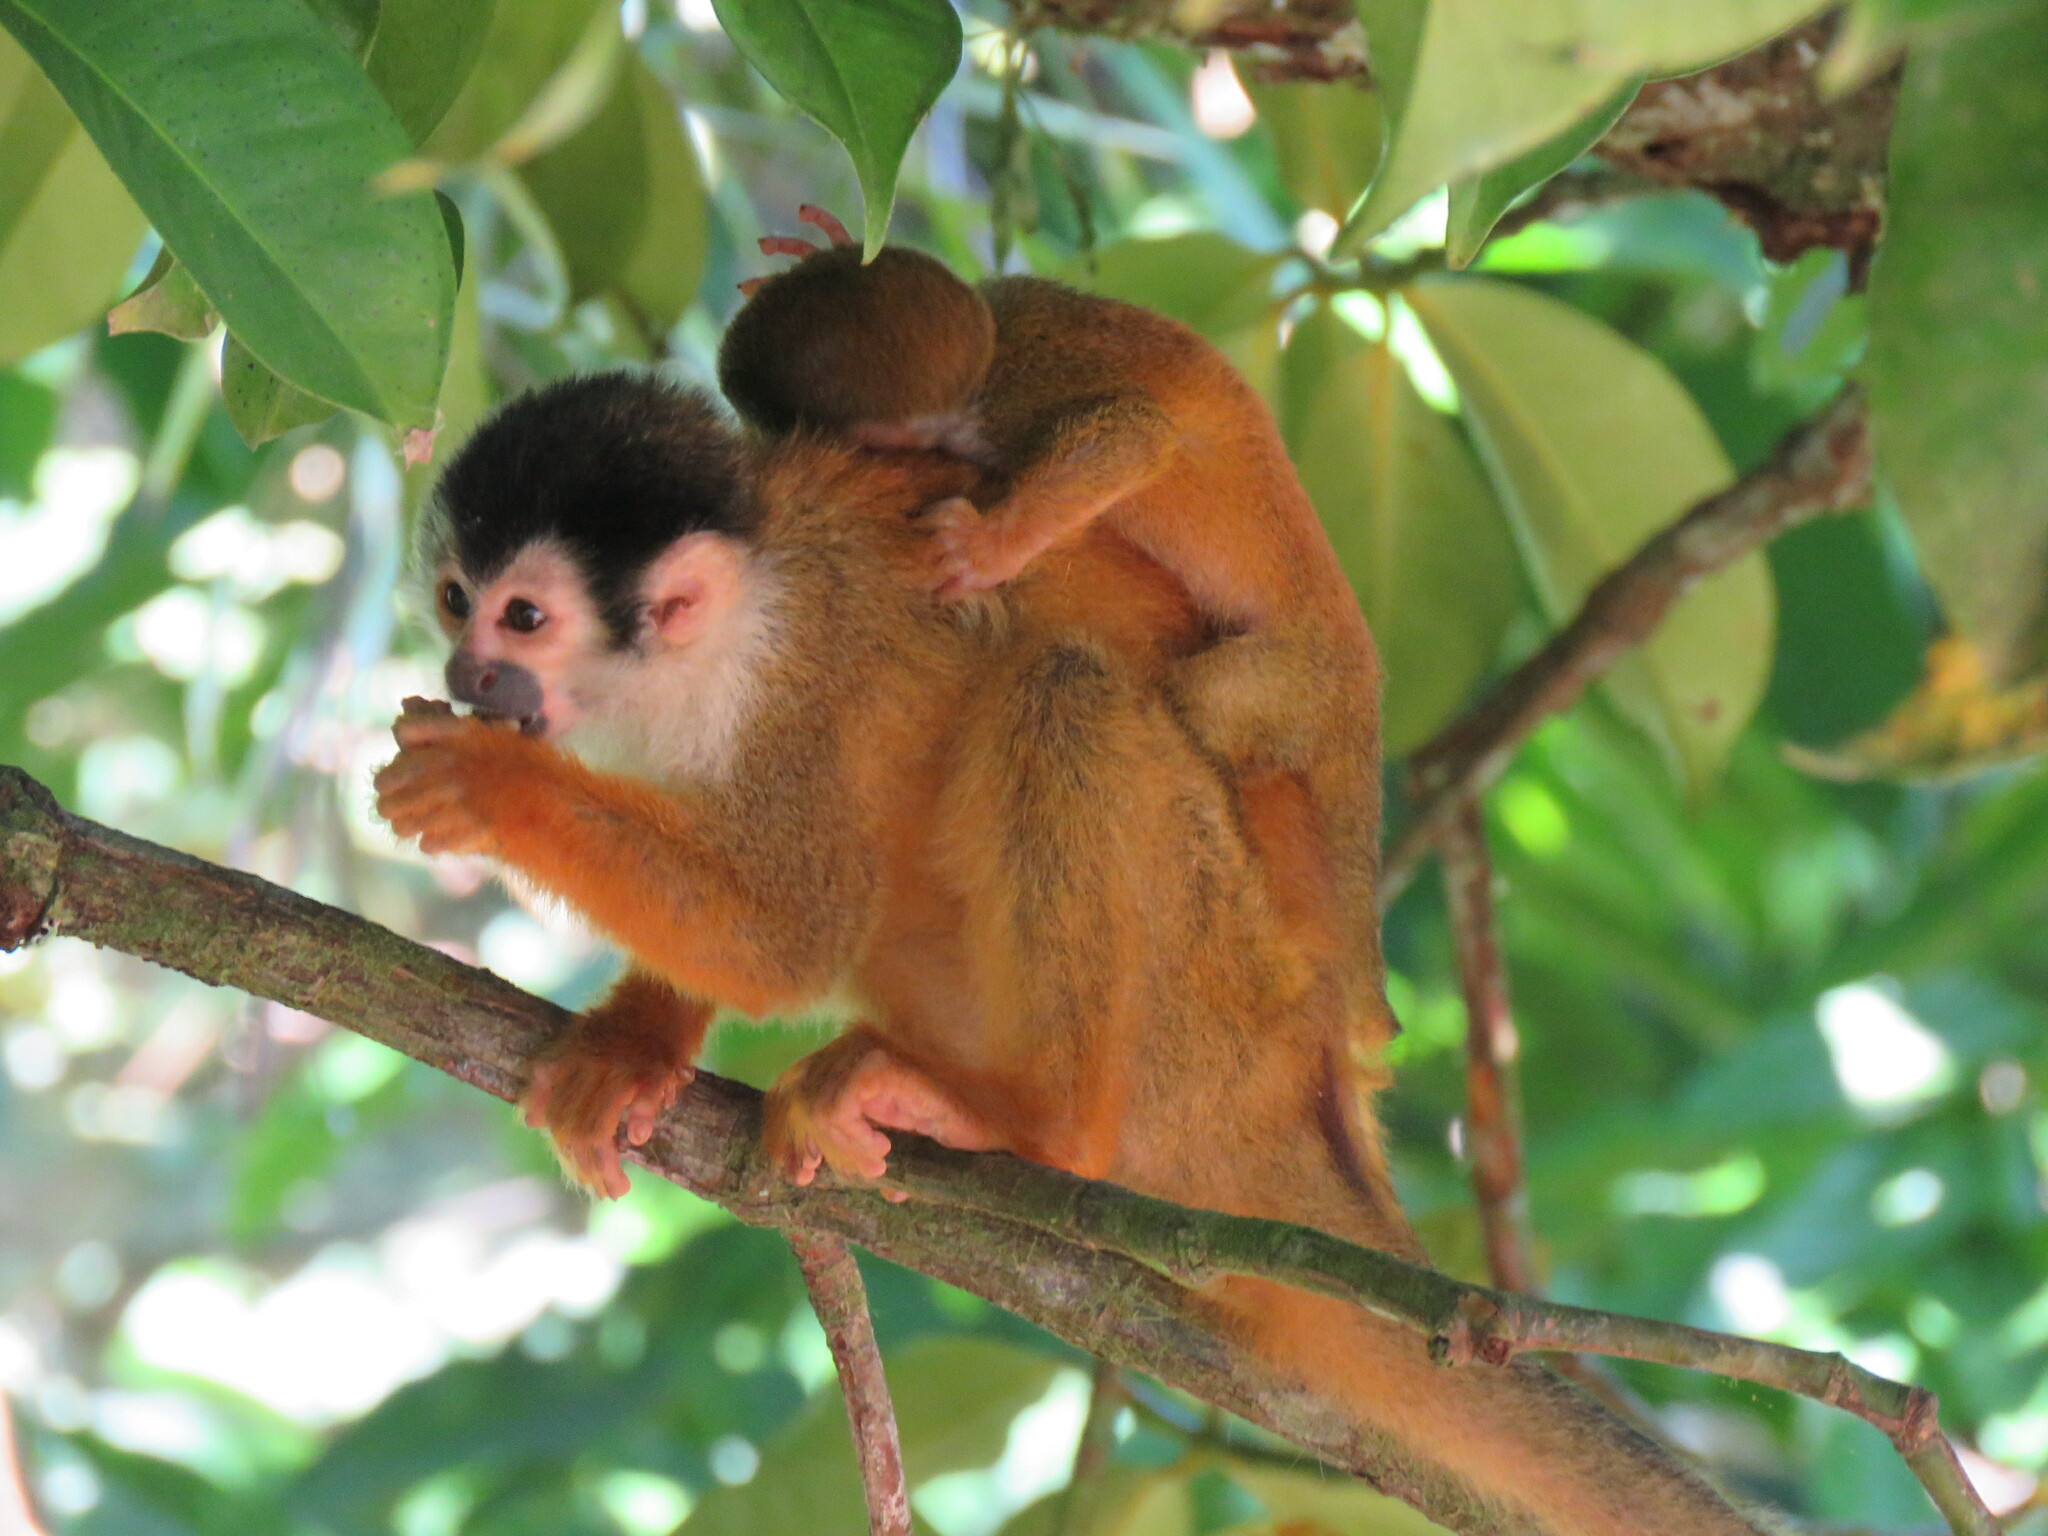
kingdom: Animalia
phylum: Chordata
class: Mammalia
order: Primates
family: Cebidae
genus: Saimiri
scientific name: Saimiri oerstedii
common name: Central american squirrel monkey
